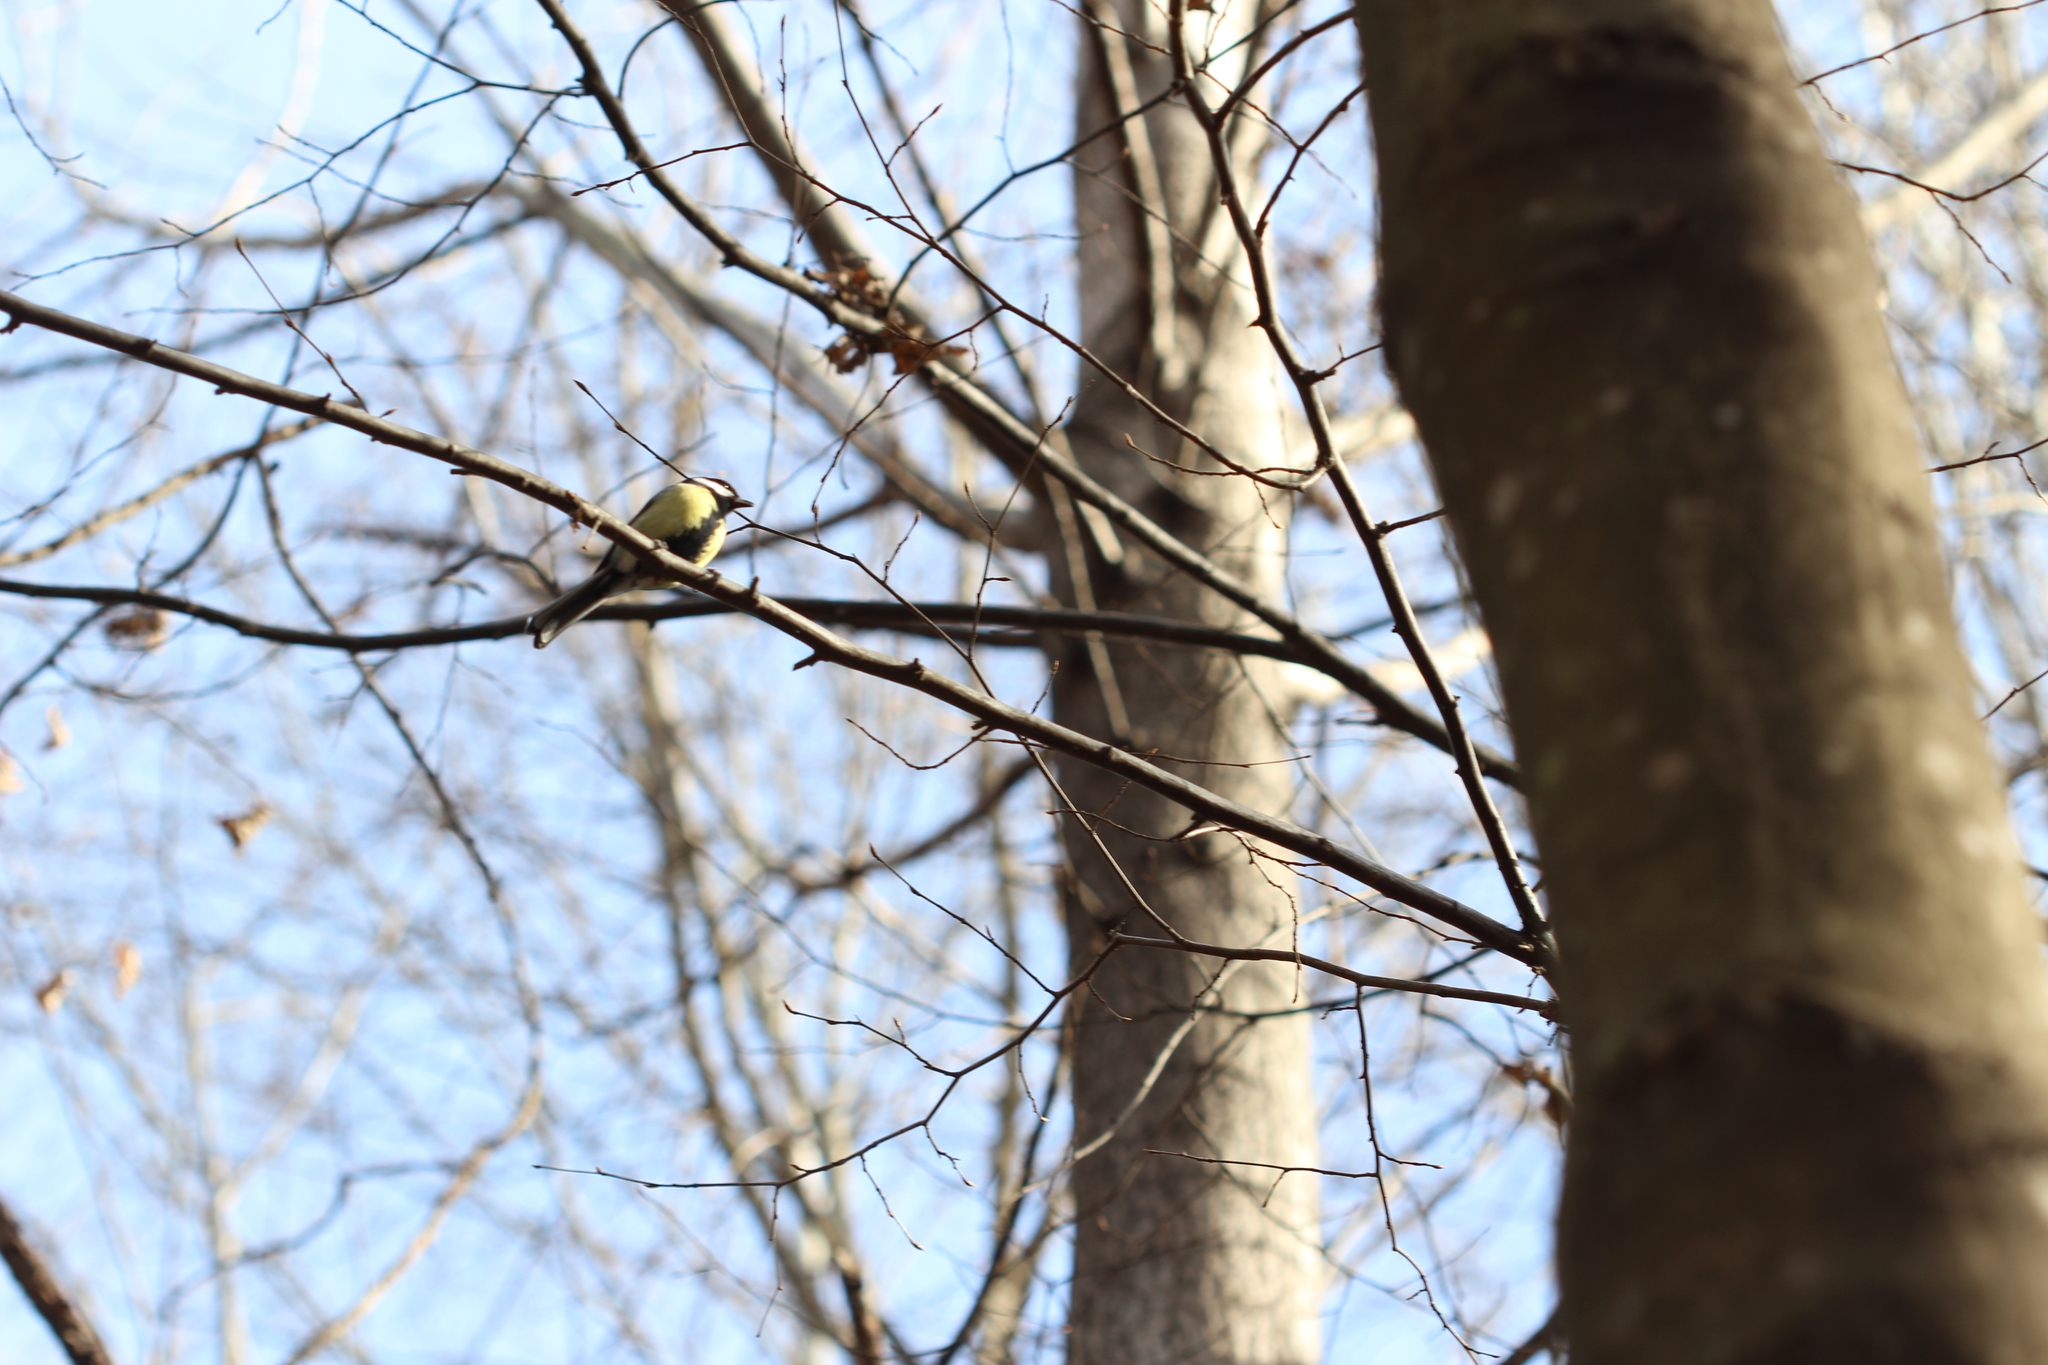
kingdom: Animalia
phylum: Chordata
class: Aves
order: Passeriformes
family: Paridae
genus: Parus
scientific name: Parus major
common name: Great tit
